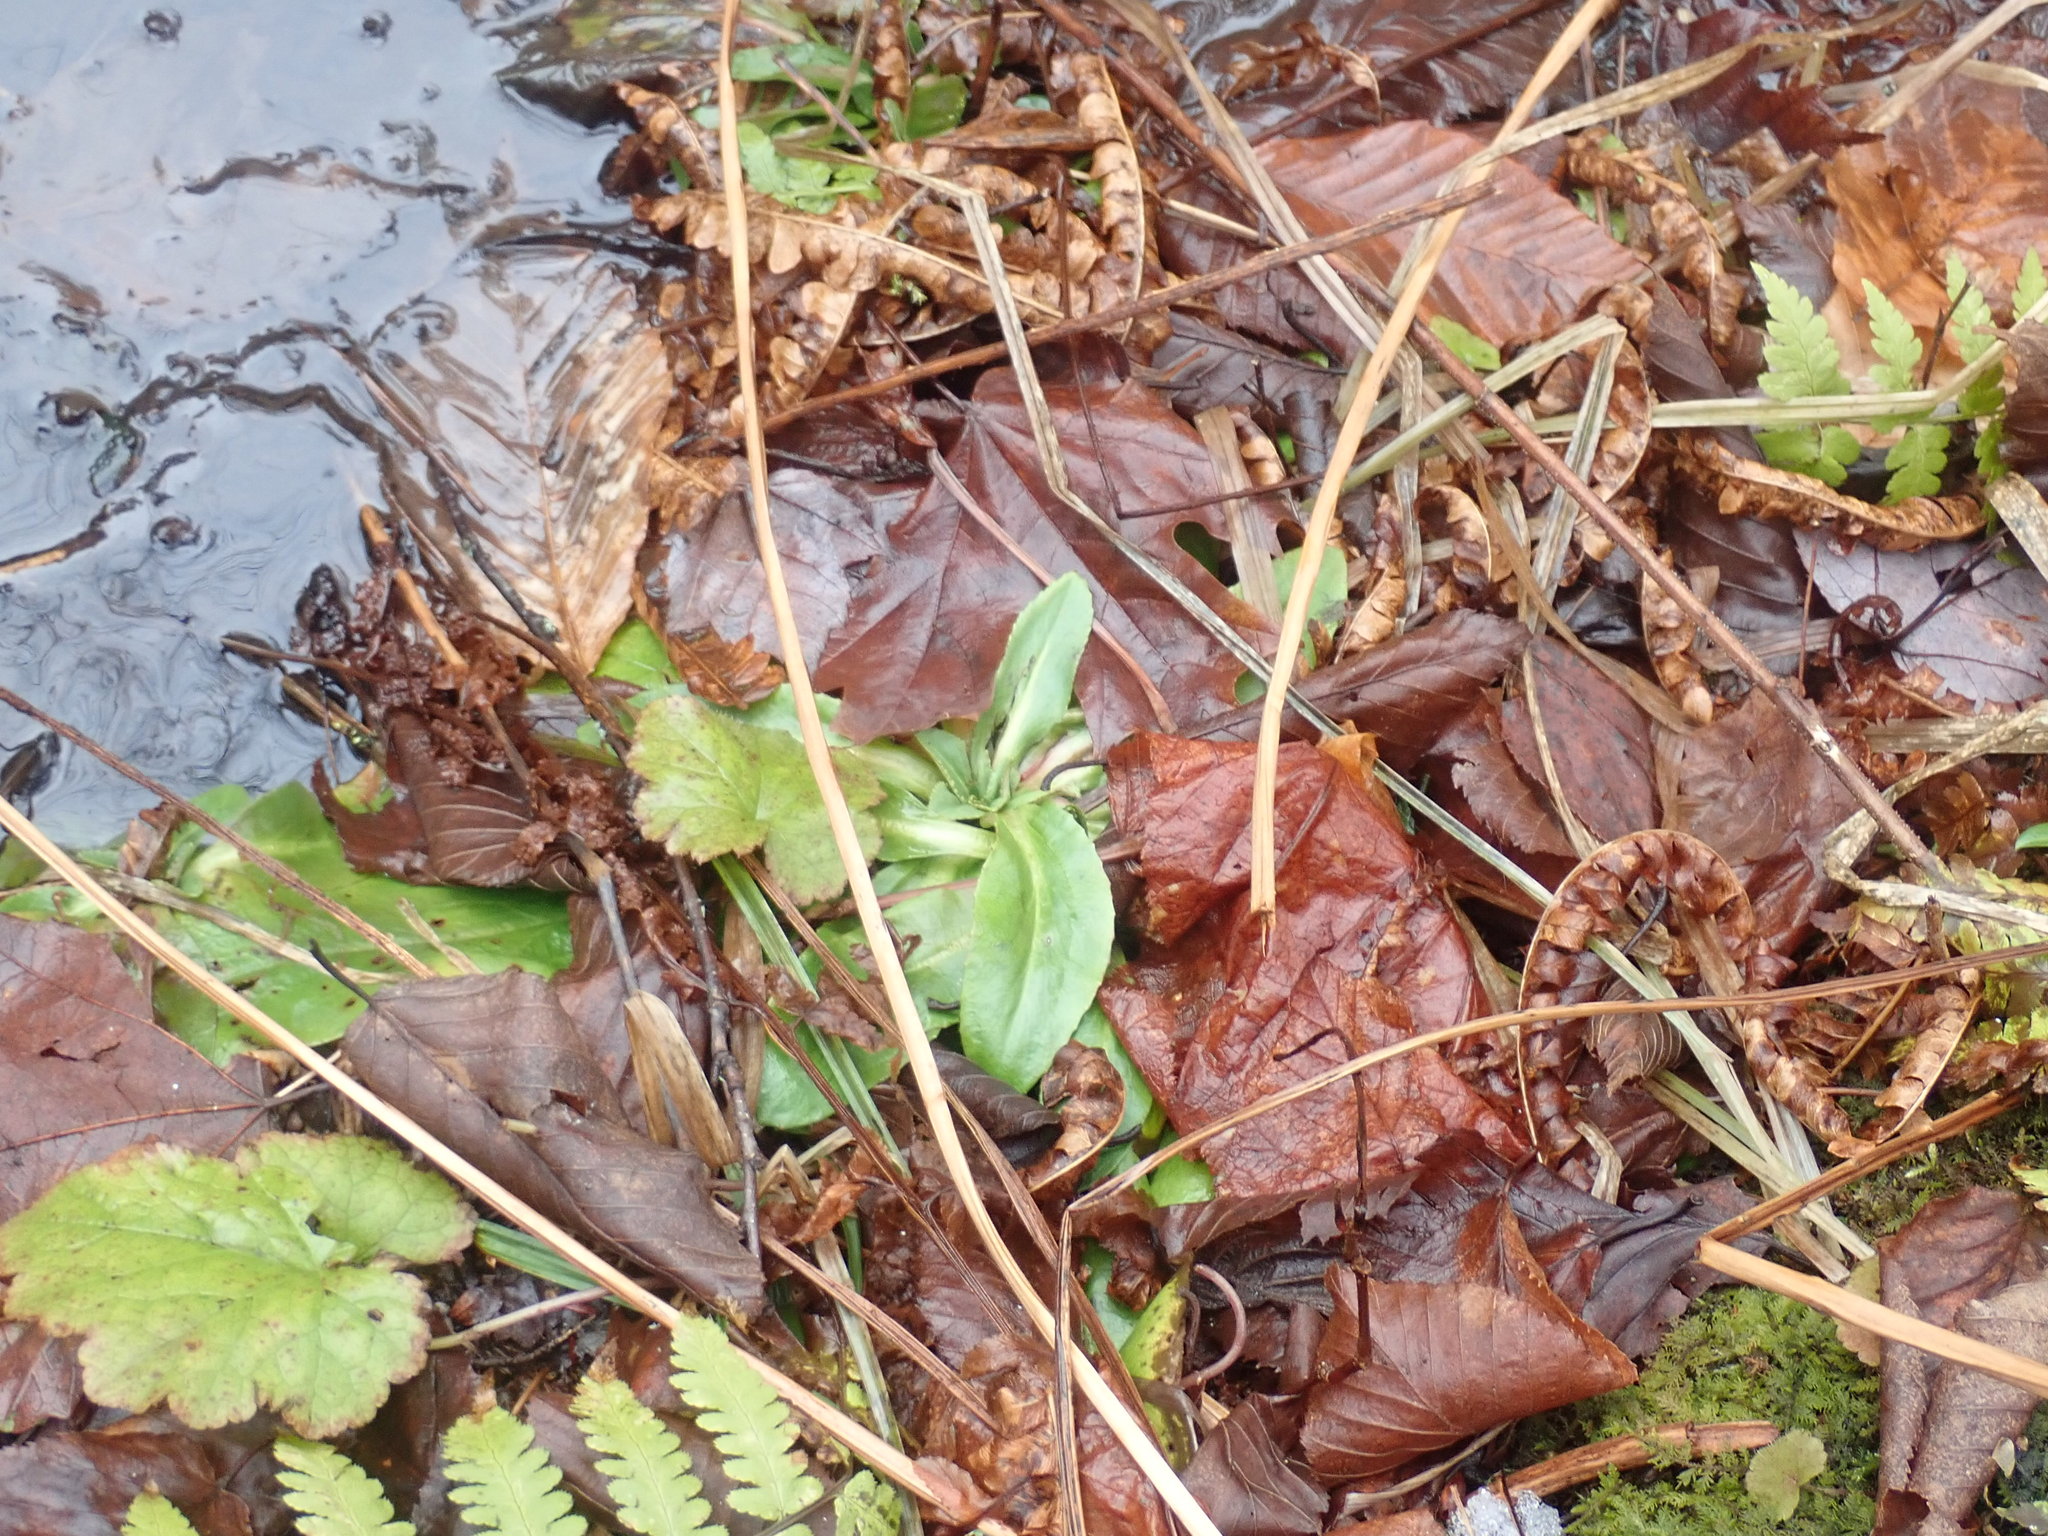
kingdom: Plantae
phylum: Tracheophyta
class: Magnoliopsida
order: Saxifragales
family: Saxifragaceae
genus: Micranthes
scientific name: Micranthes pensylvanica
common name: Marsh saxifrage
